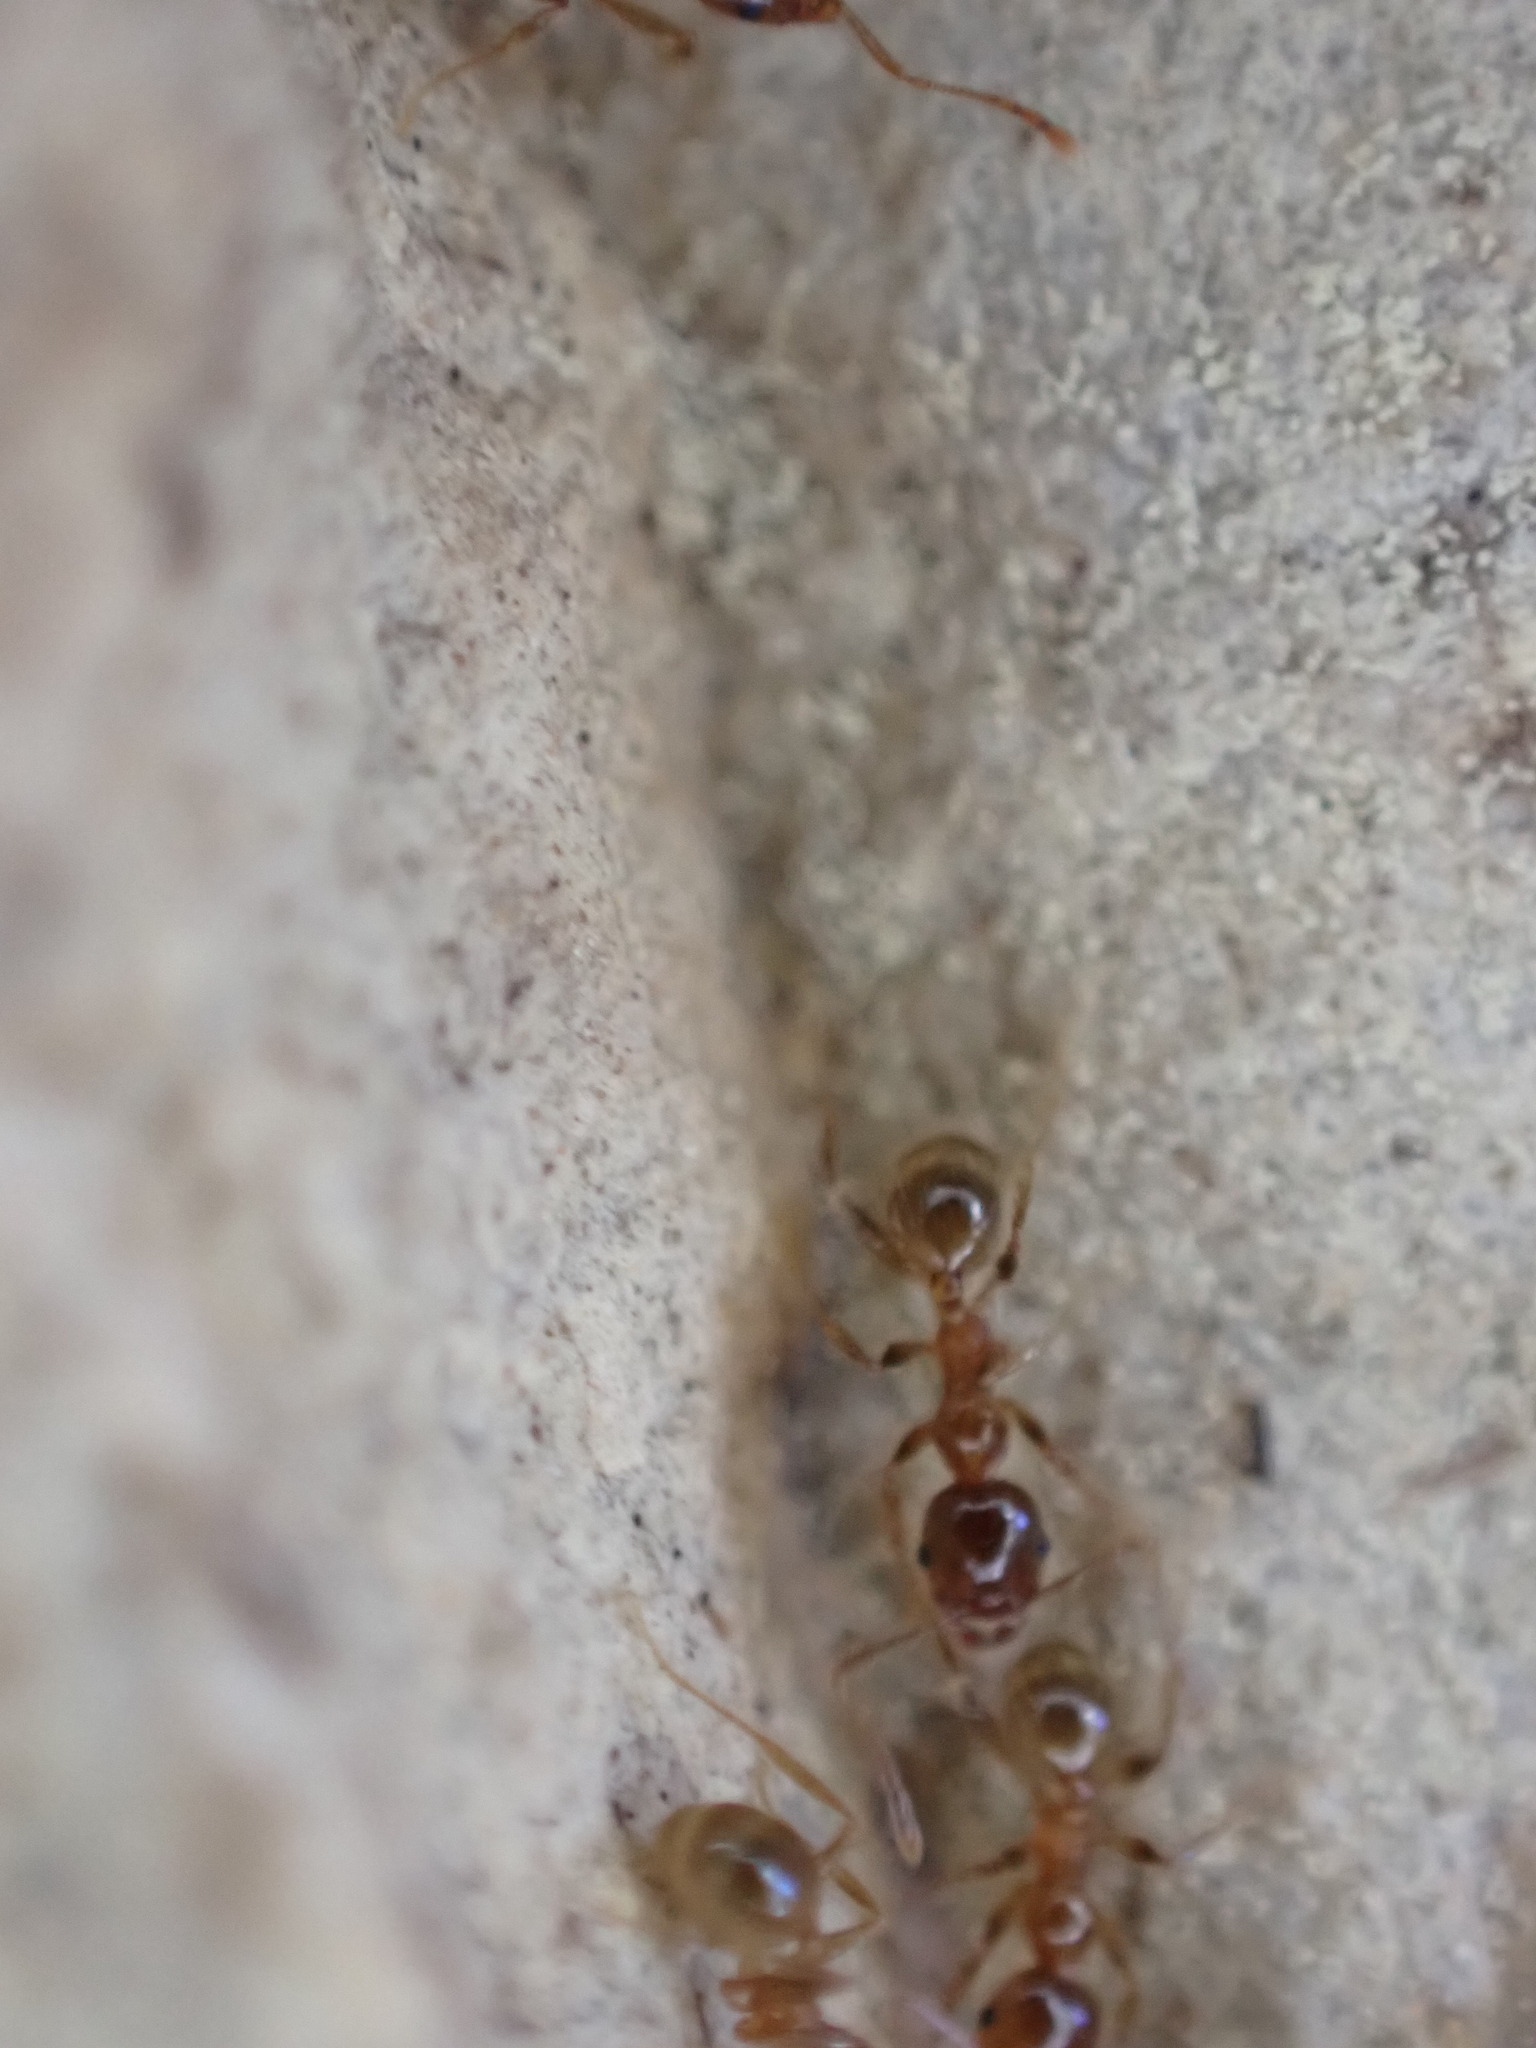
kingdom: Animalia
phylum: Arthropoda
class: Insecta
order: Hymenoptera
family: Formicidae
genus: Pheidole
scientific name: Pheidole pallidula
